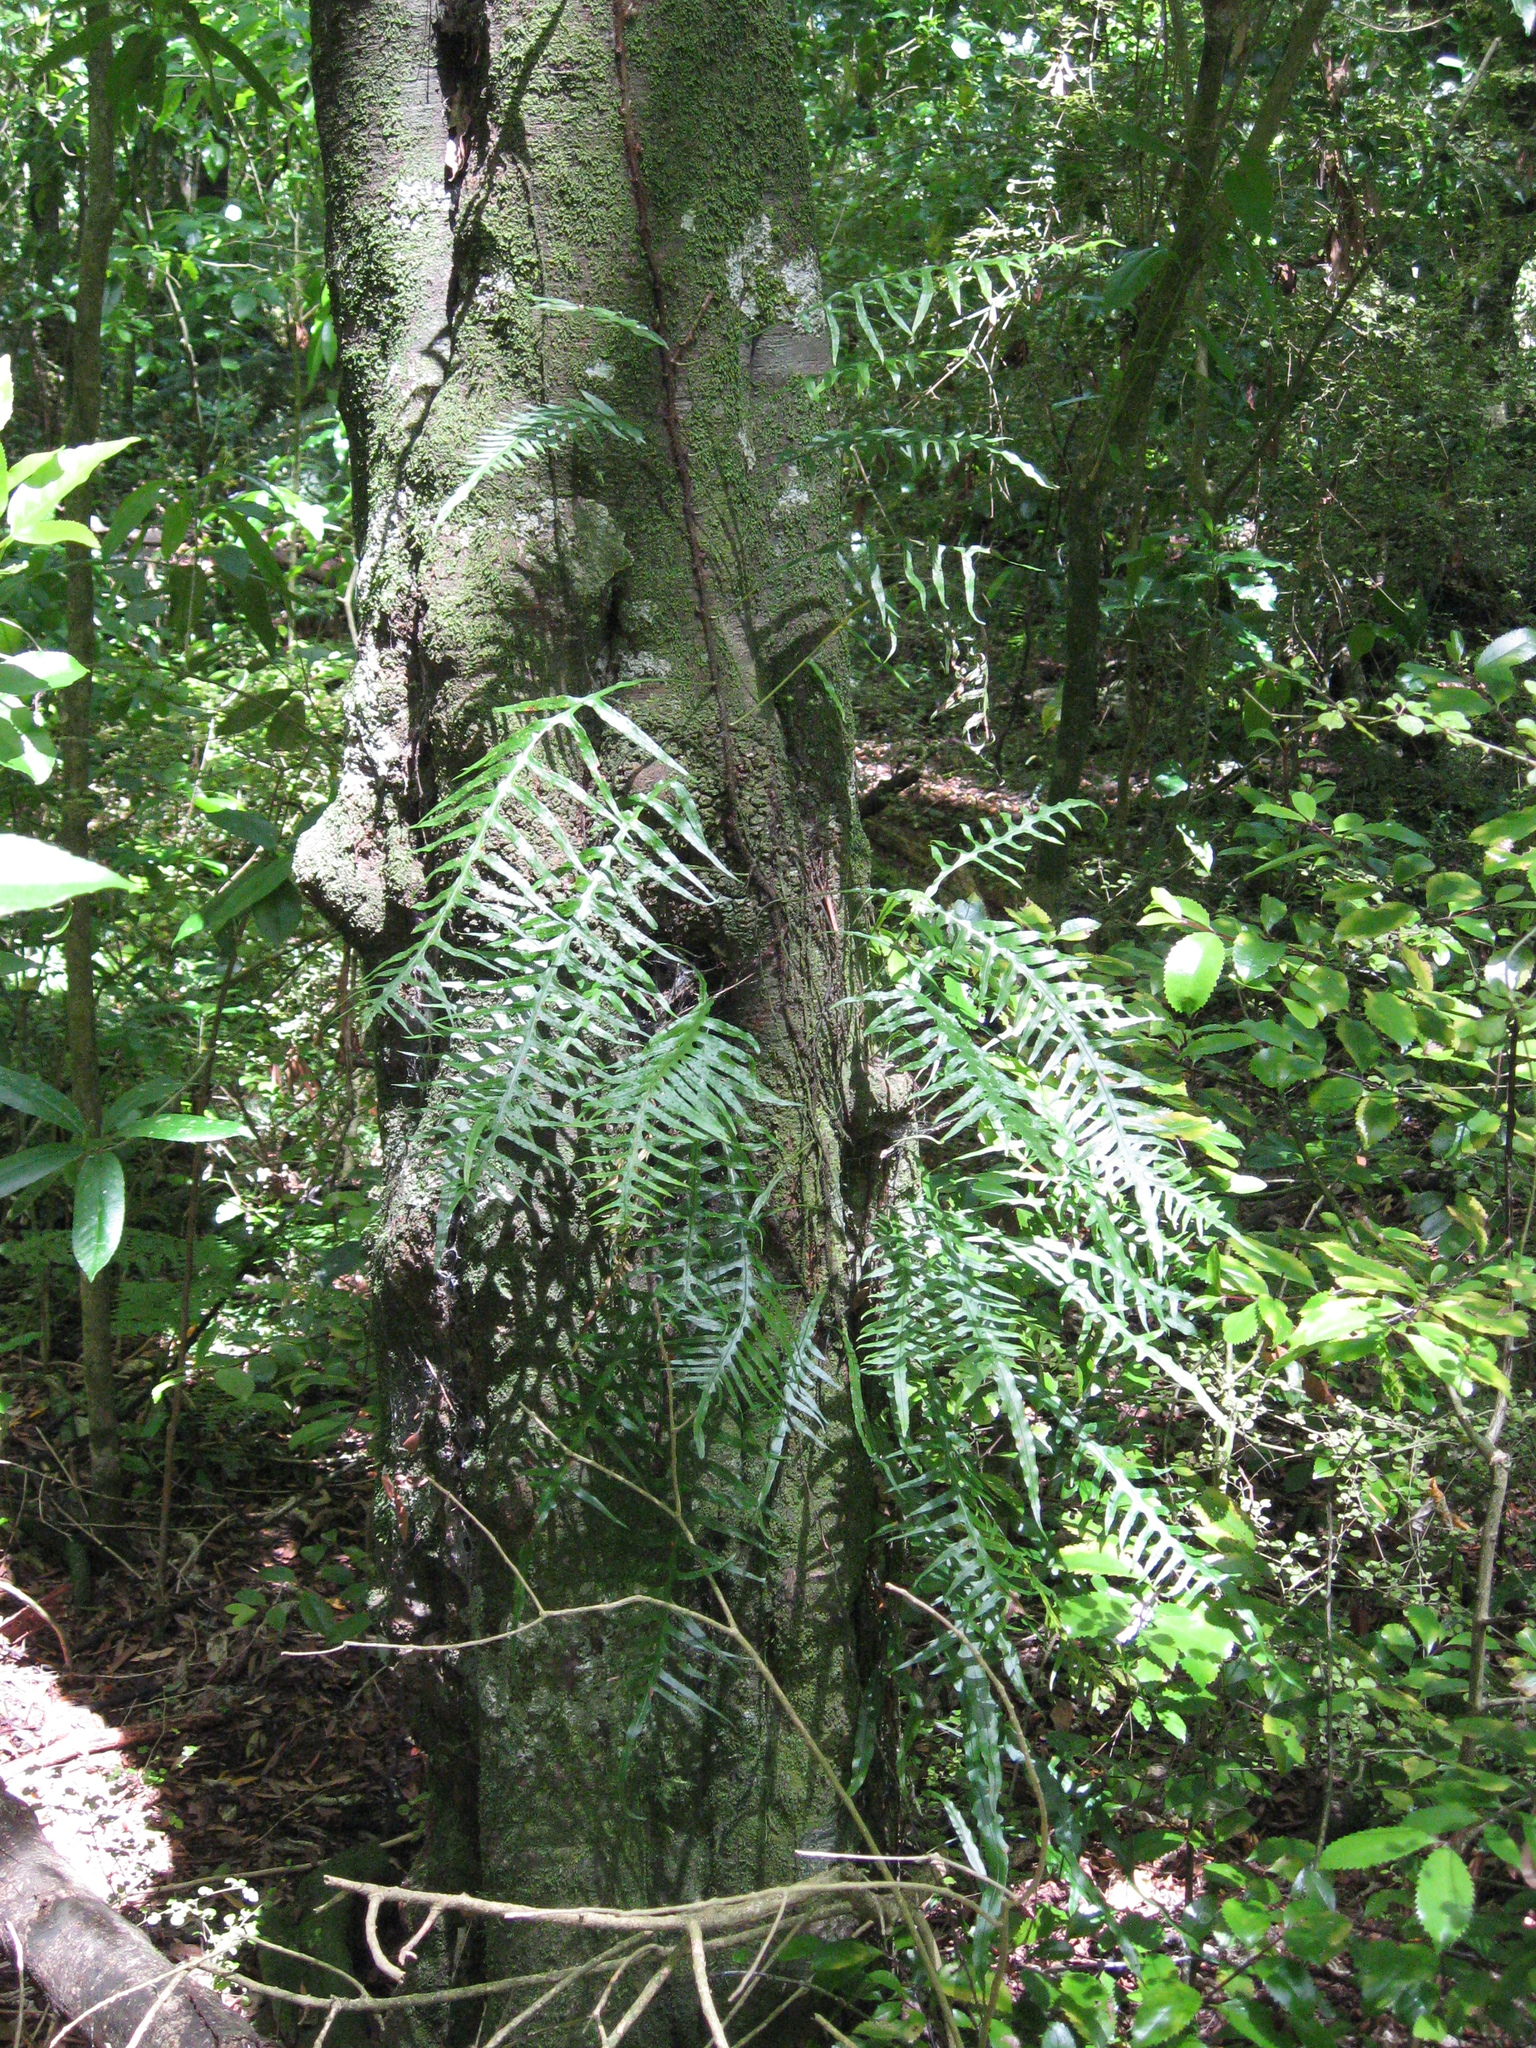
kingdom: Plantae
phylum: Tracheophyta
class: Polypodiopsida
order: Polypodiales
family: Polypodiaceae
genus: Lecanopteris
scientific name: Lecanopteris scandens
